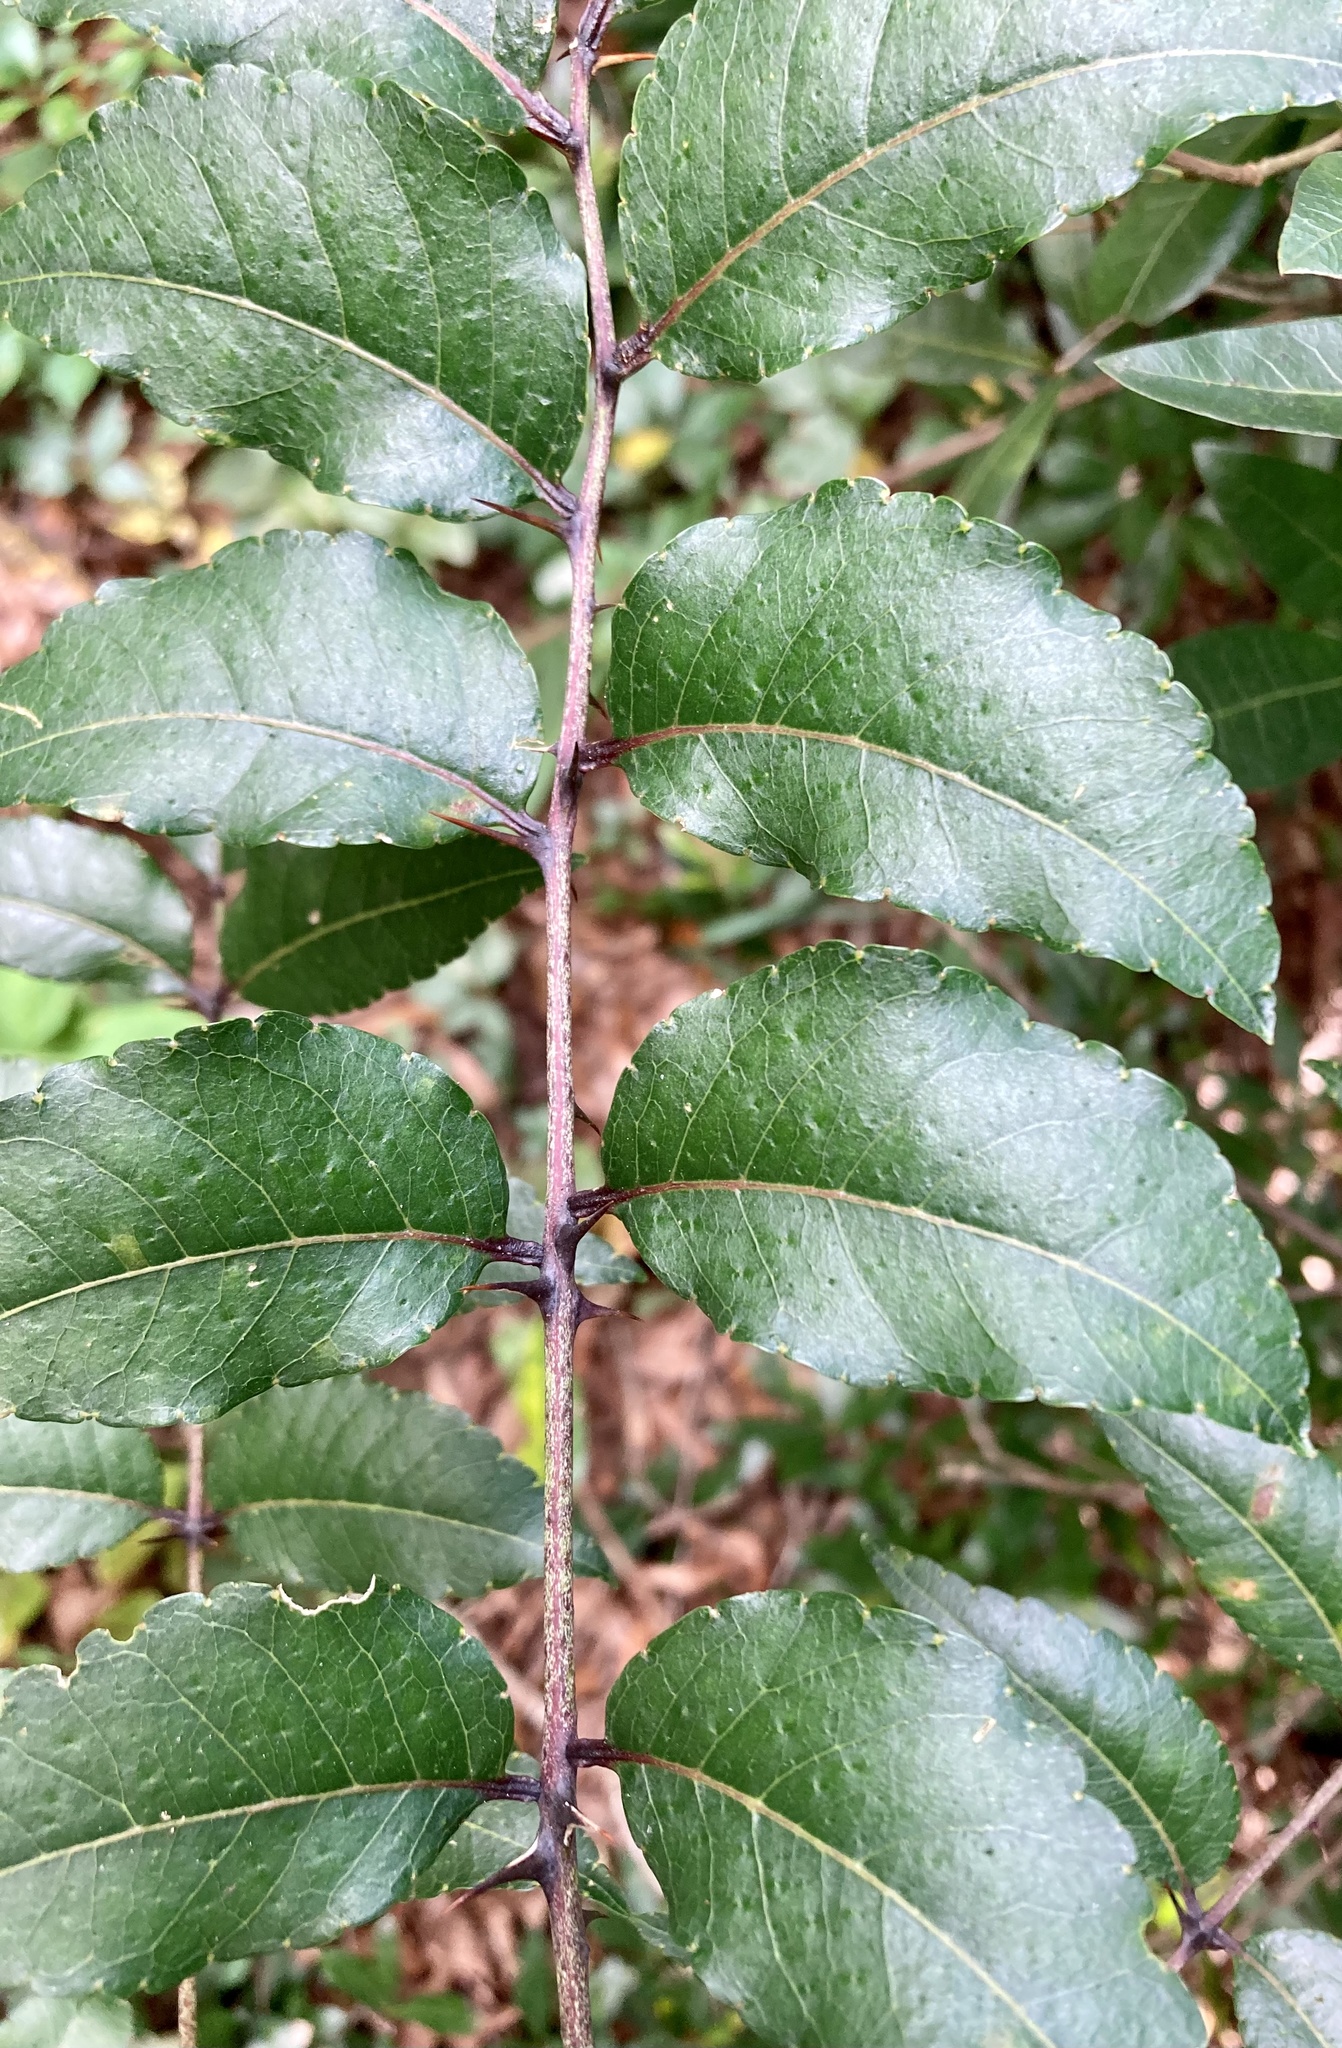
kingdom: Plantae
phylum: Tracheophyta
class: Magnoliopsida
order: Sapindales
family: Rutaceae
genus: Zanthoxylum
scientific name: Zanthoxylum clava-herculis
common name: Hercules'-club
